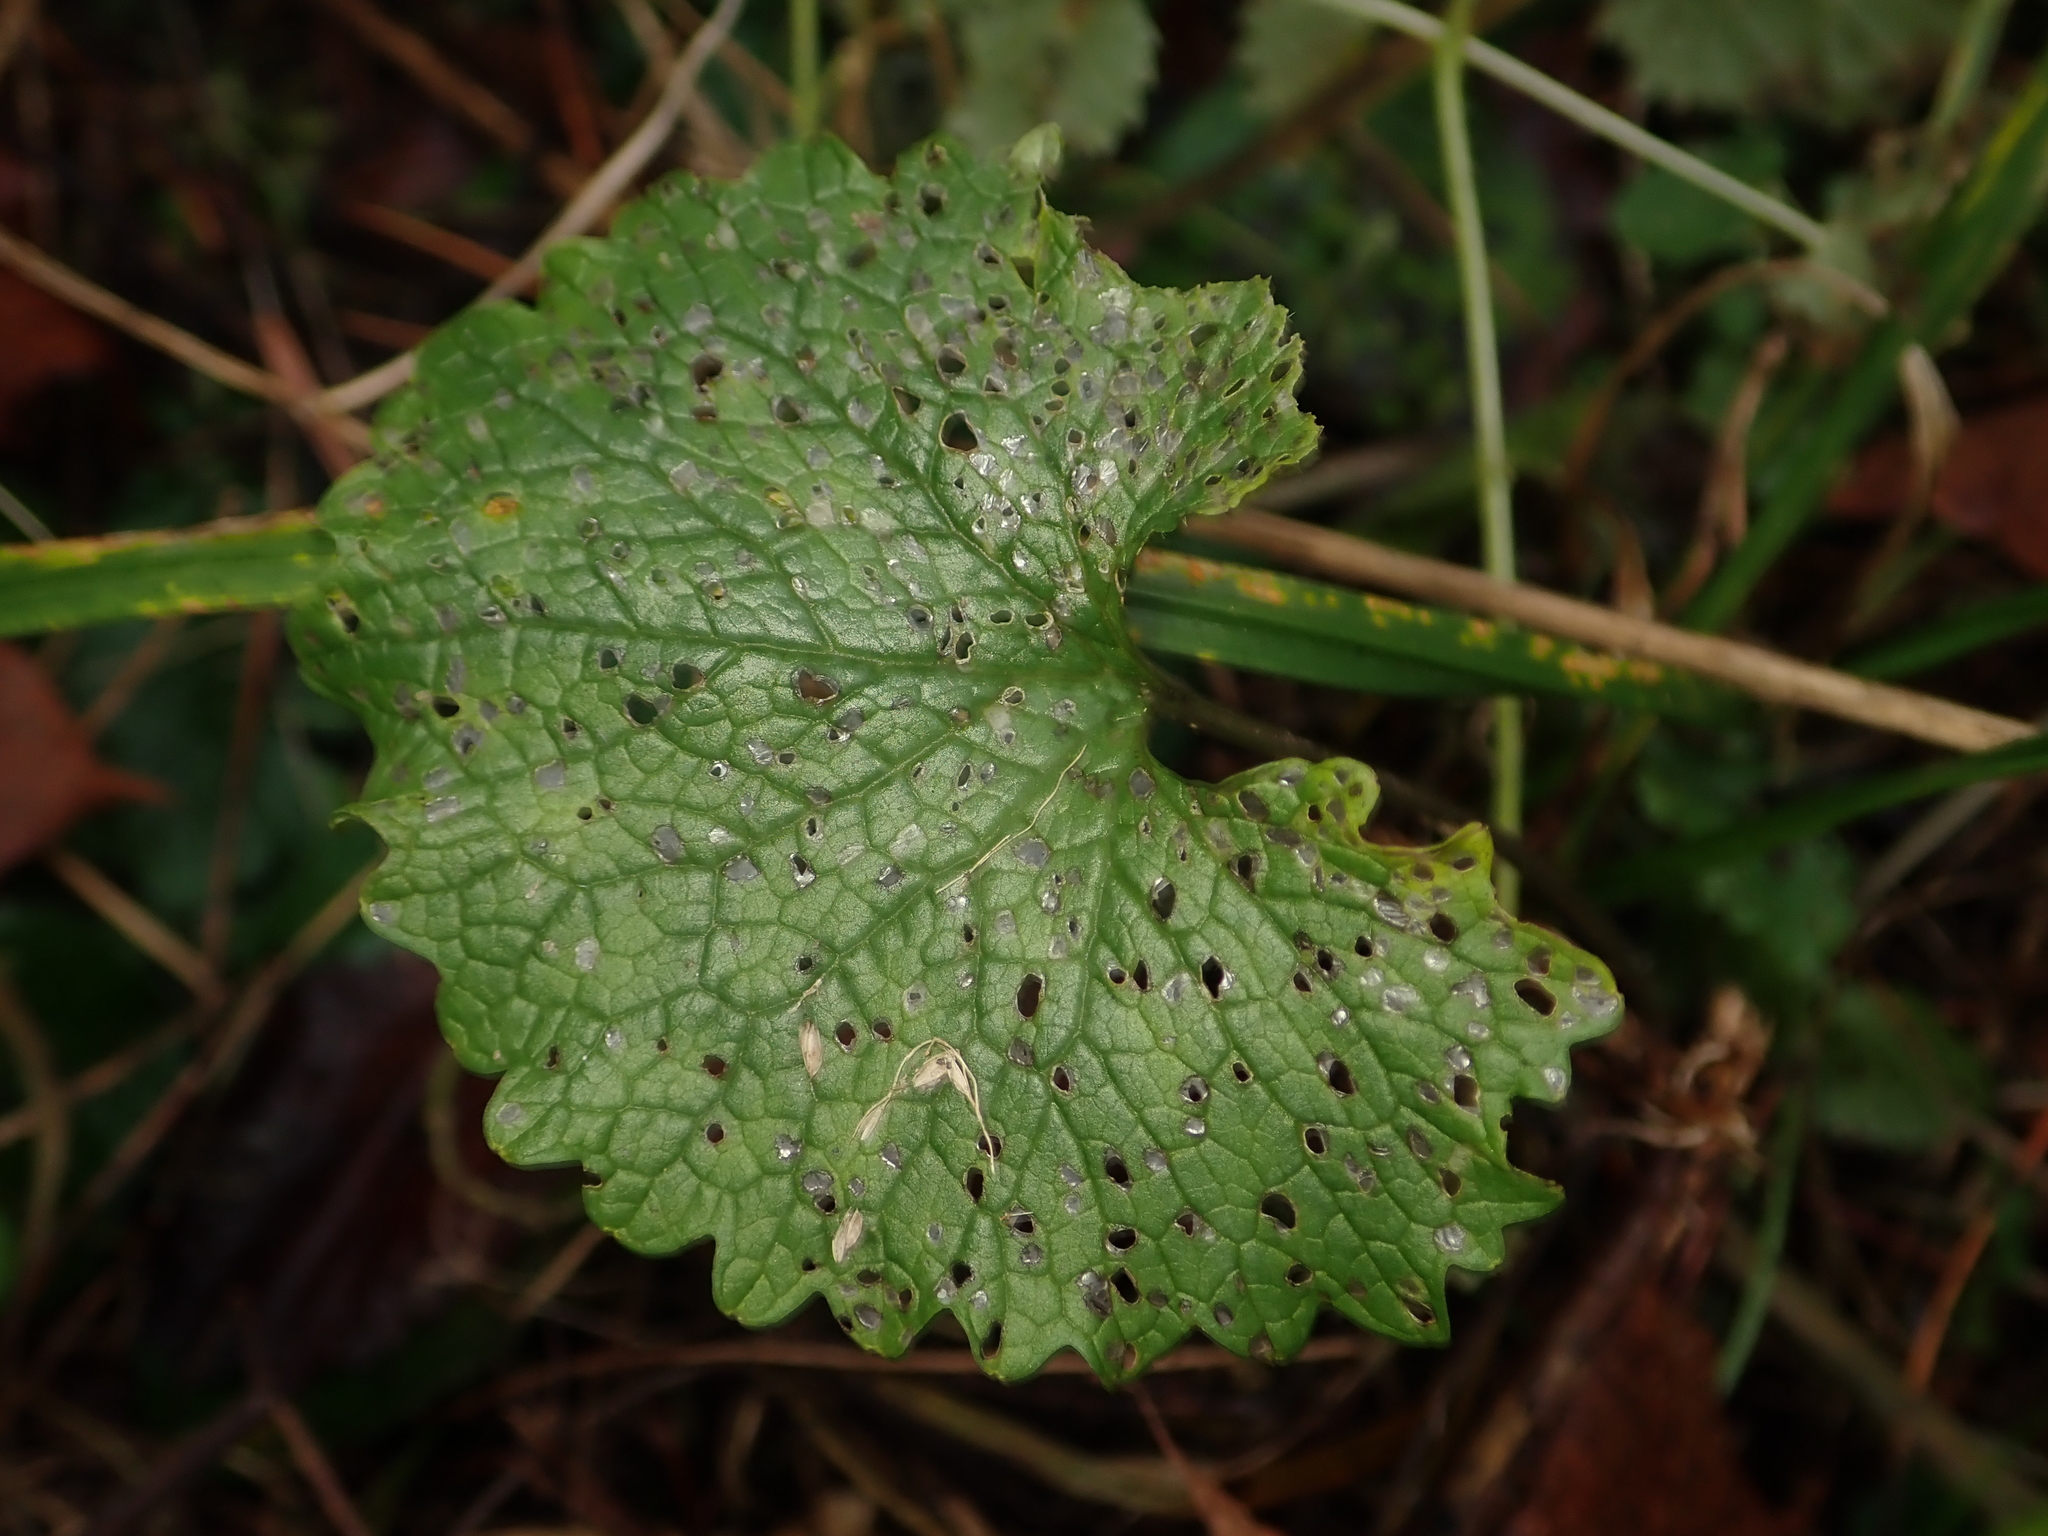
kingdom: Plantae
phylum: Tracheophyta
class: Magnoliopsida
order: Brassicales
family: Brassicaceae
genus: Alliaria
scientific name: Alliaria petiolata
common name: Garlic mustard
